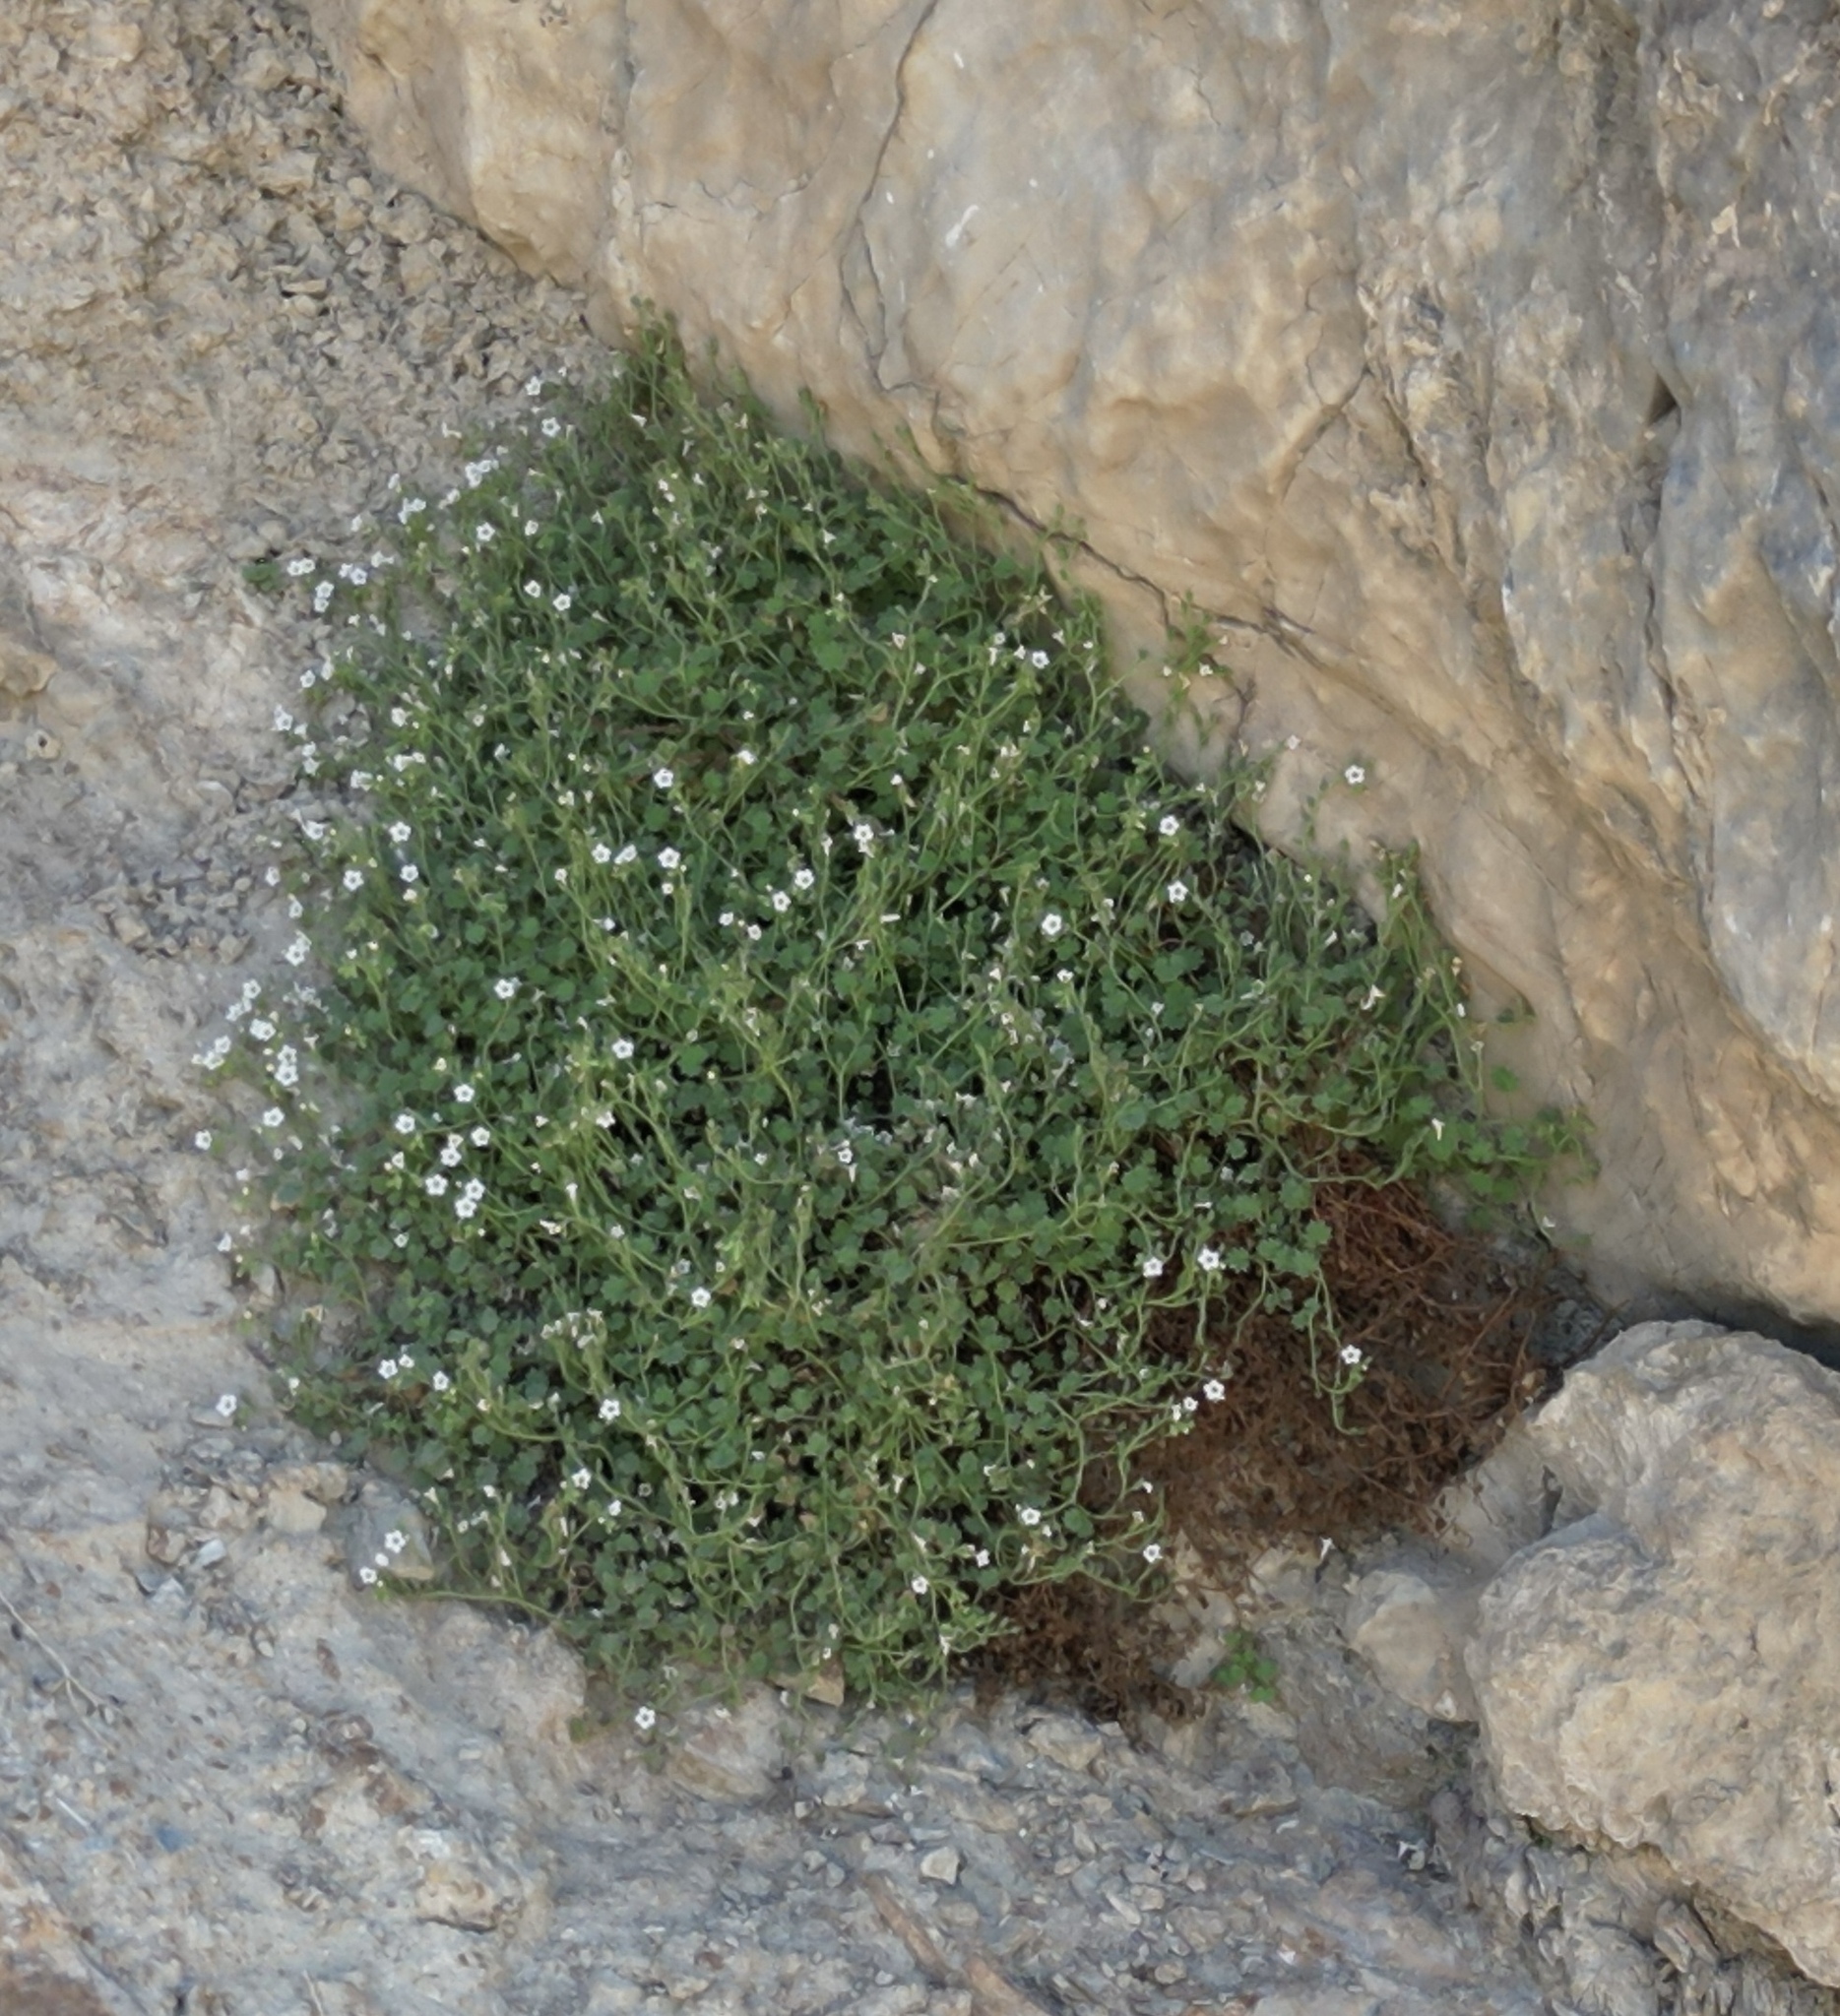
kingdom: Plantae
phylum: Tracheophyta
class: Magnoliopsida
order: Boraginales
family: Hydrophyllaceae
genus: Phacelia
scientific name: Phacelia perityloides
